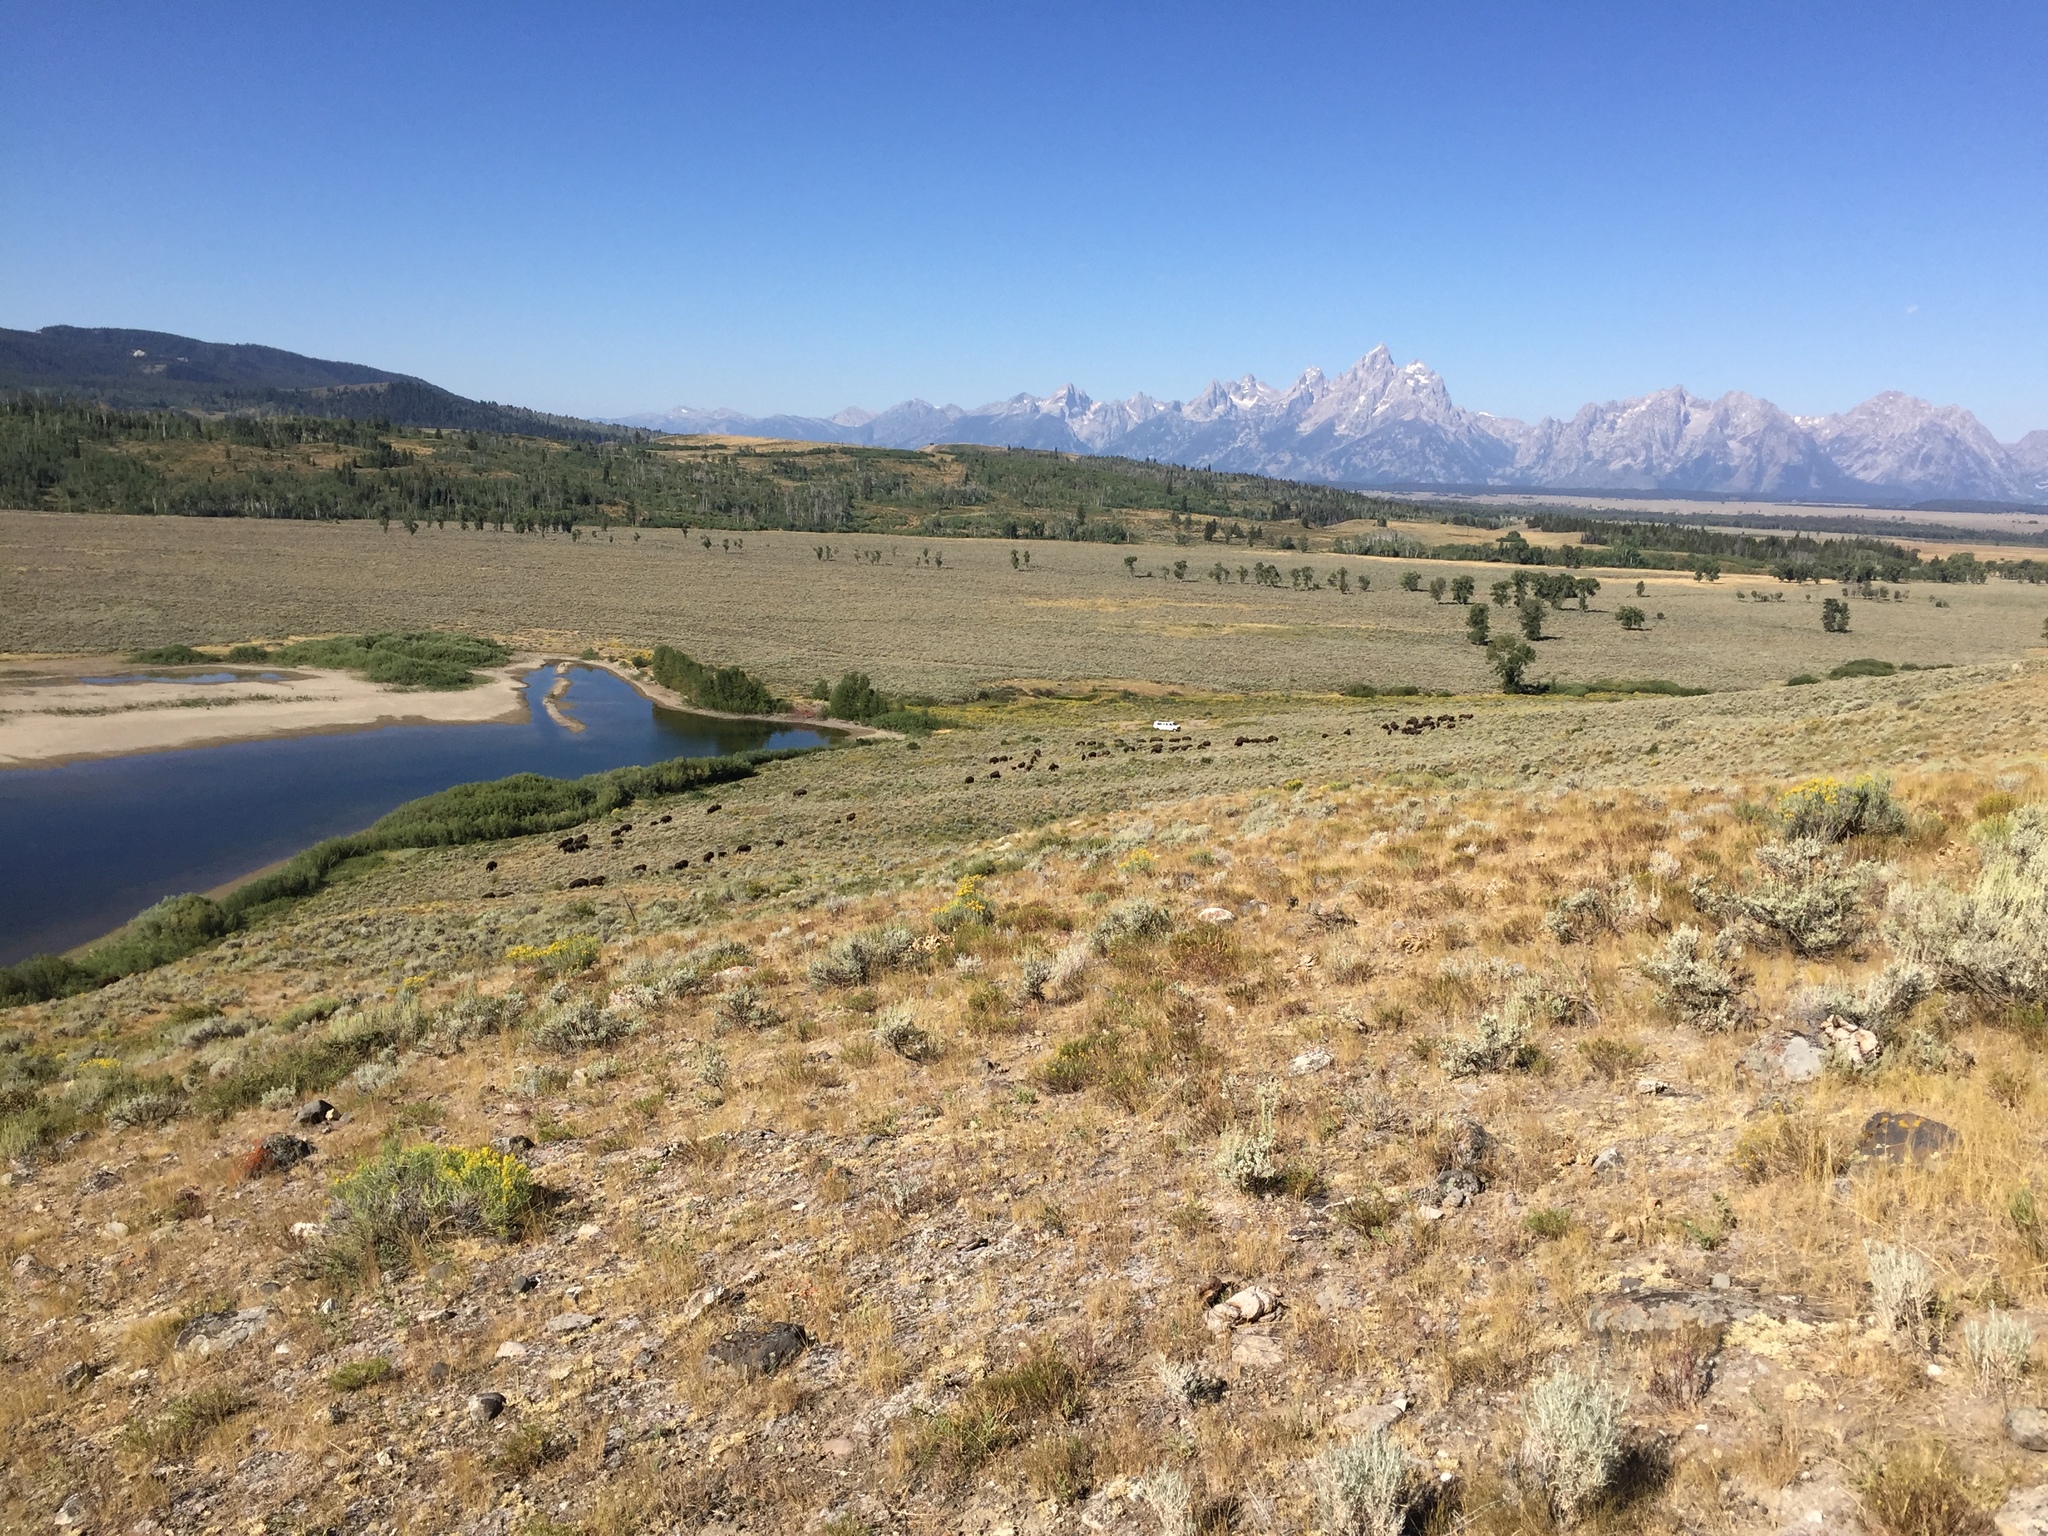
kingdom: Animalia
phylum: Chordata
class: Mammalia
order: Artiodactyla
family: Bovidae
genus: Bison
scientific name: Bison bison
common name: American bison
